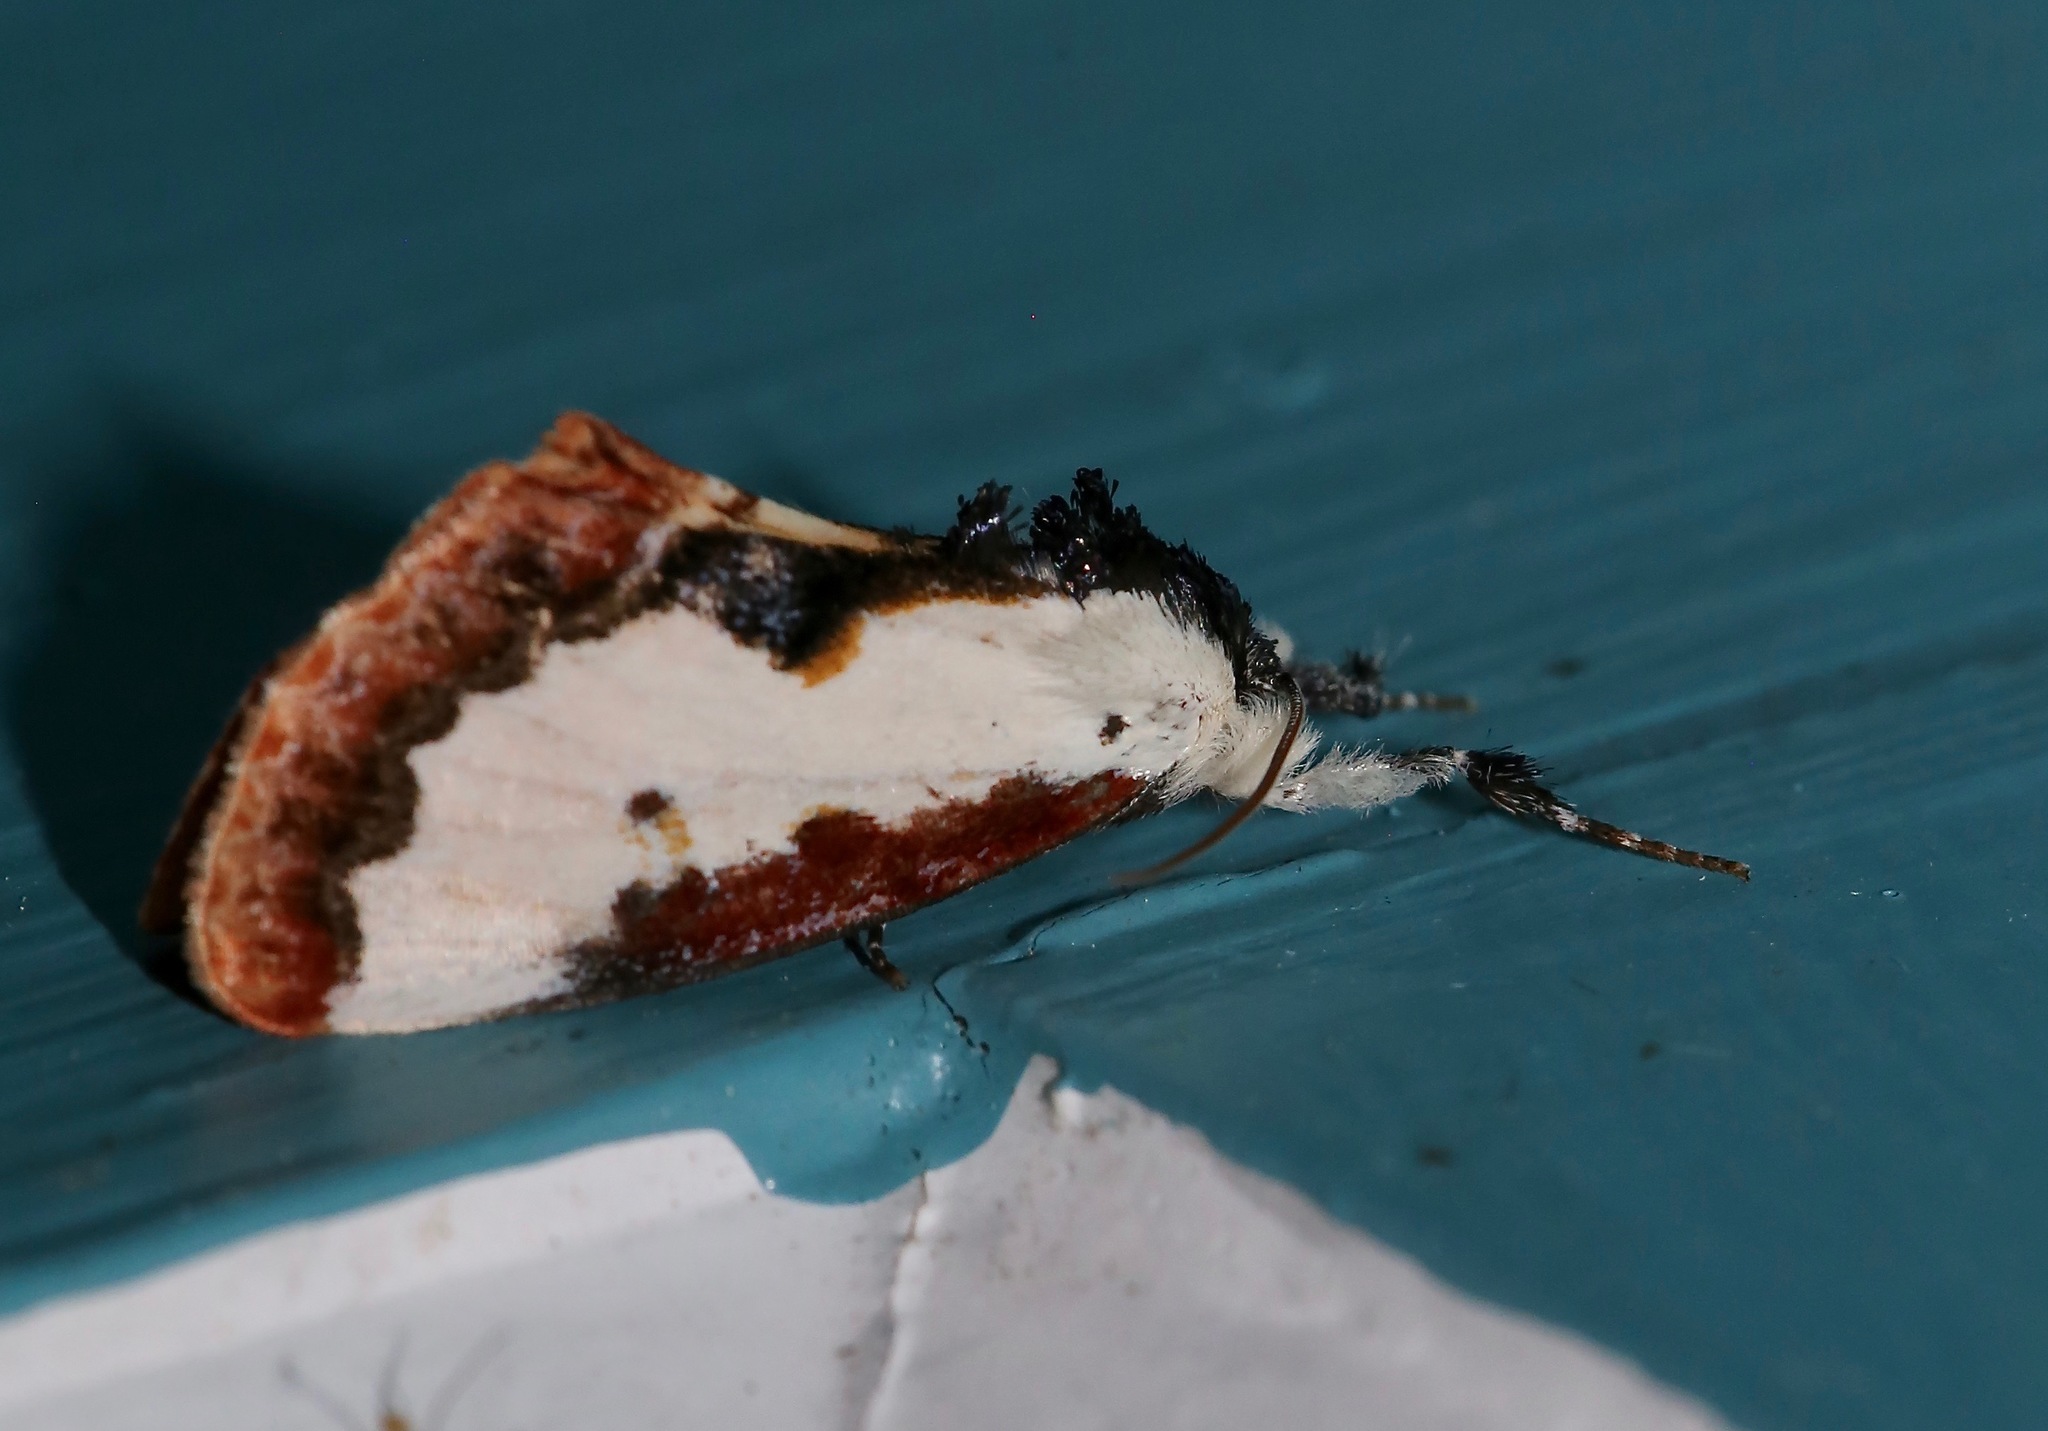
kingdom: Animalia
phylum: Arthropoda
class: Insecta
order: Lepidoptera
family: Noctuidae
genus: Eudryas
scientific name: Eudryas unio
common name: Pearly wood-nymph
